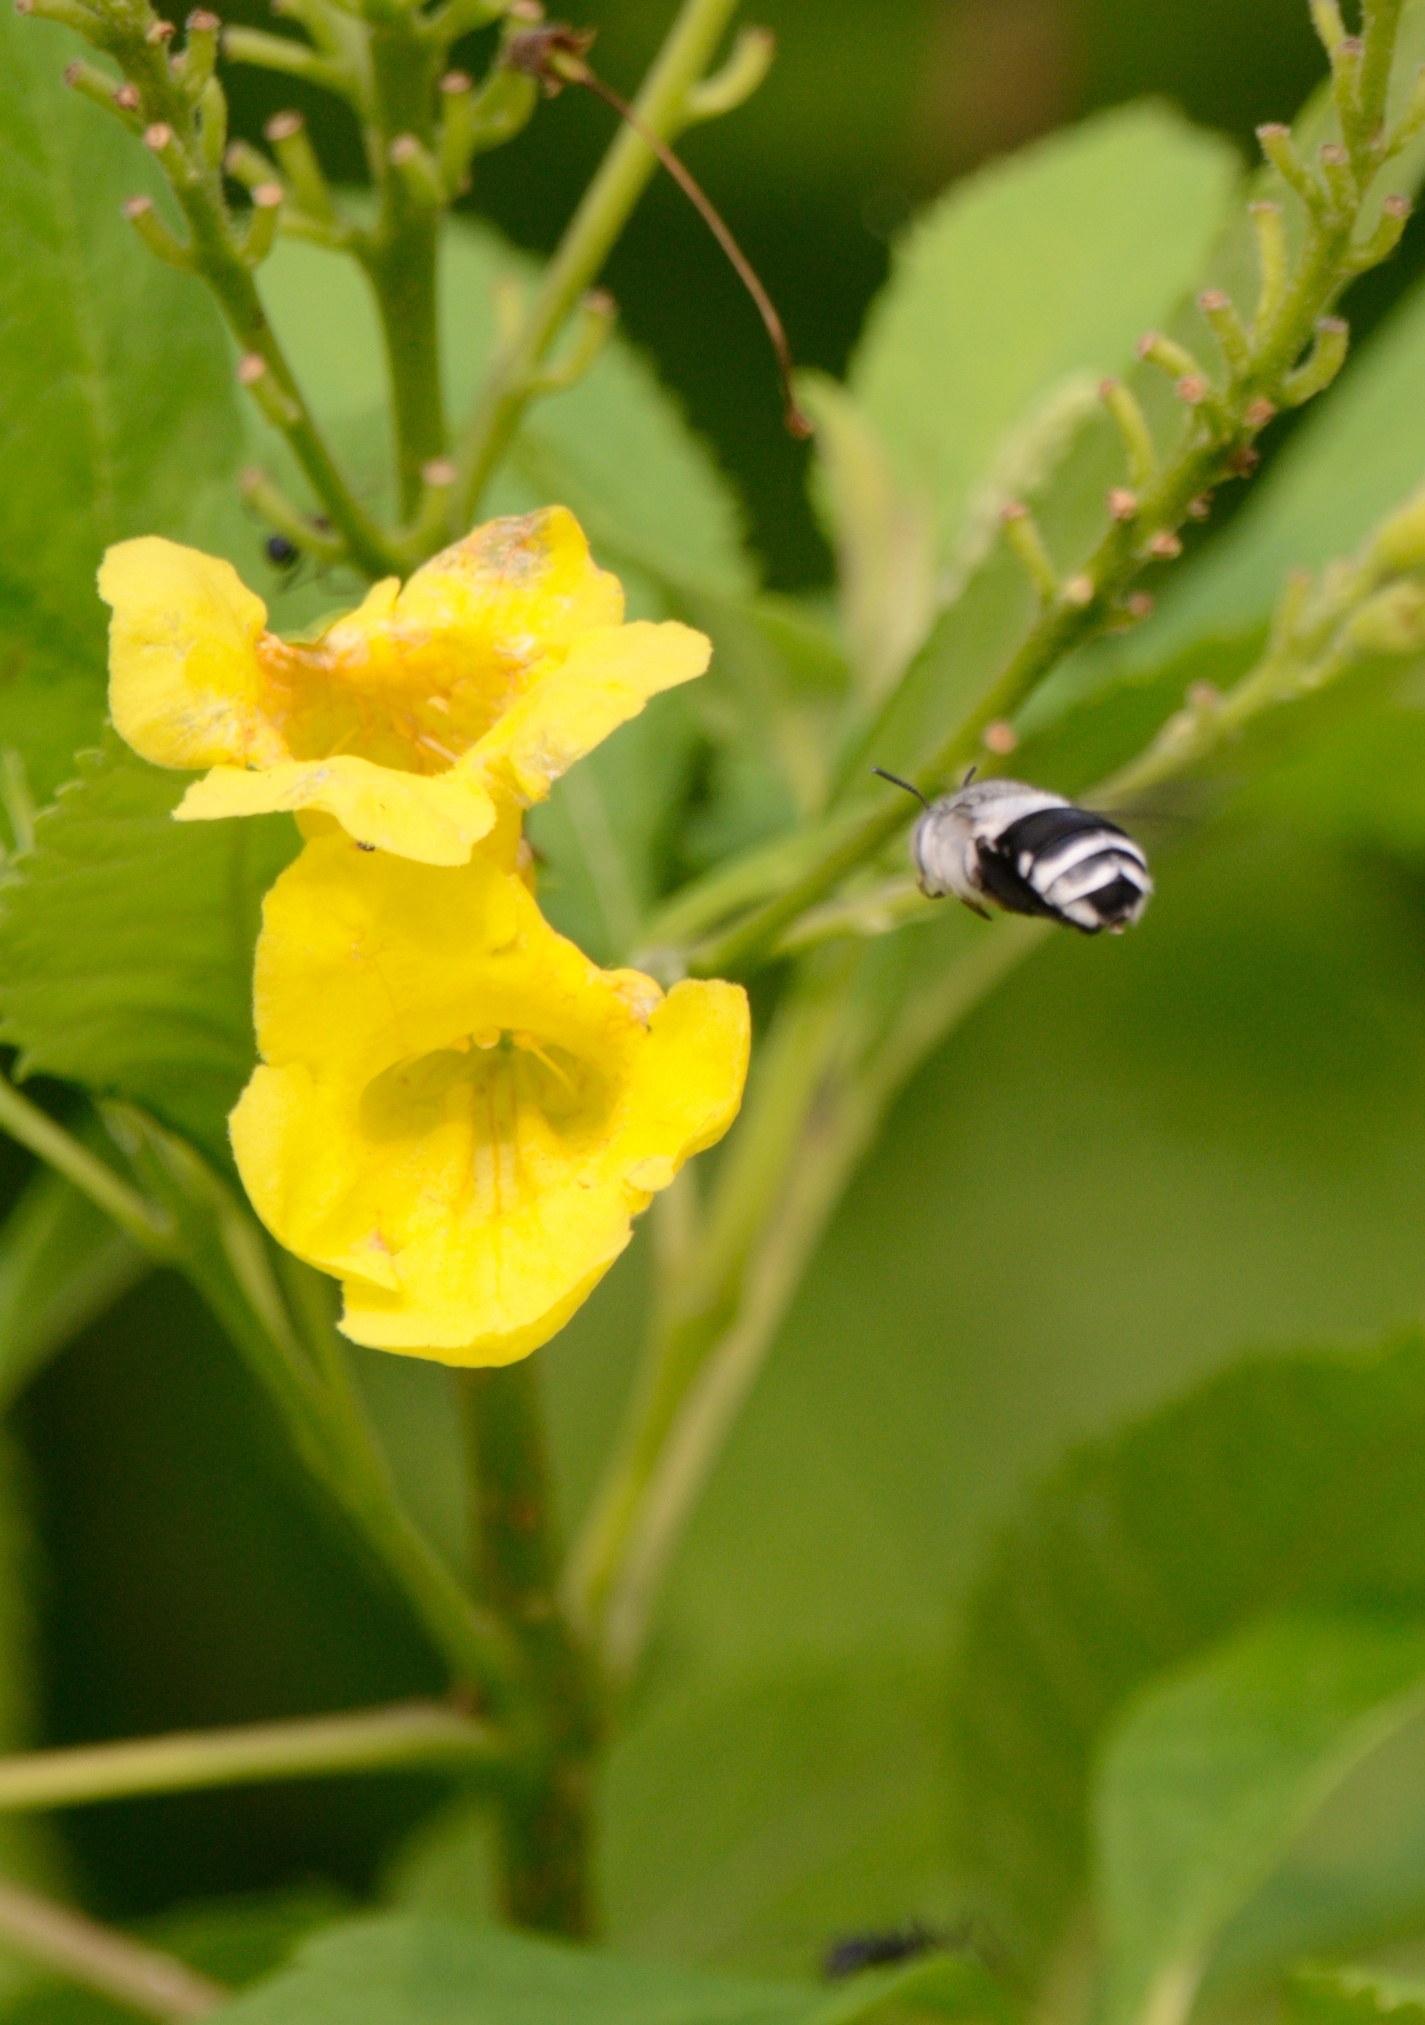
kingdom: Animalia
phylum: Arthropoda
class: Insecta
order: Hymenoptera
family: Apidae
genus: Amegilla
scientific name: Amegilla dizona
